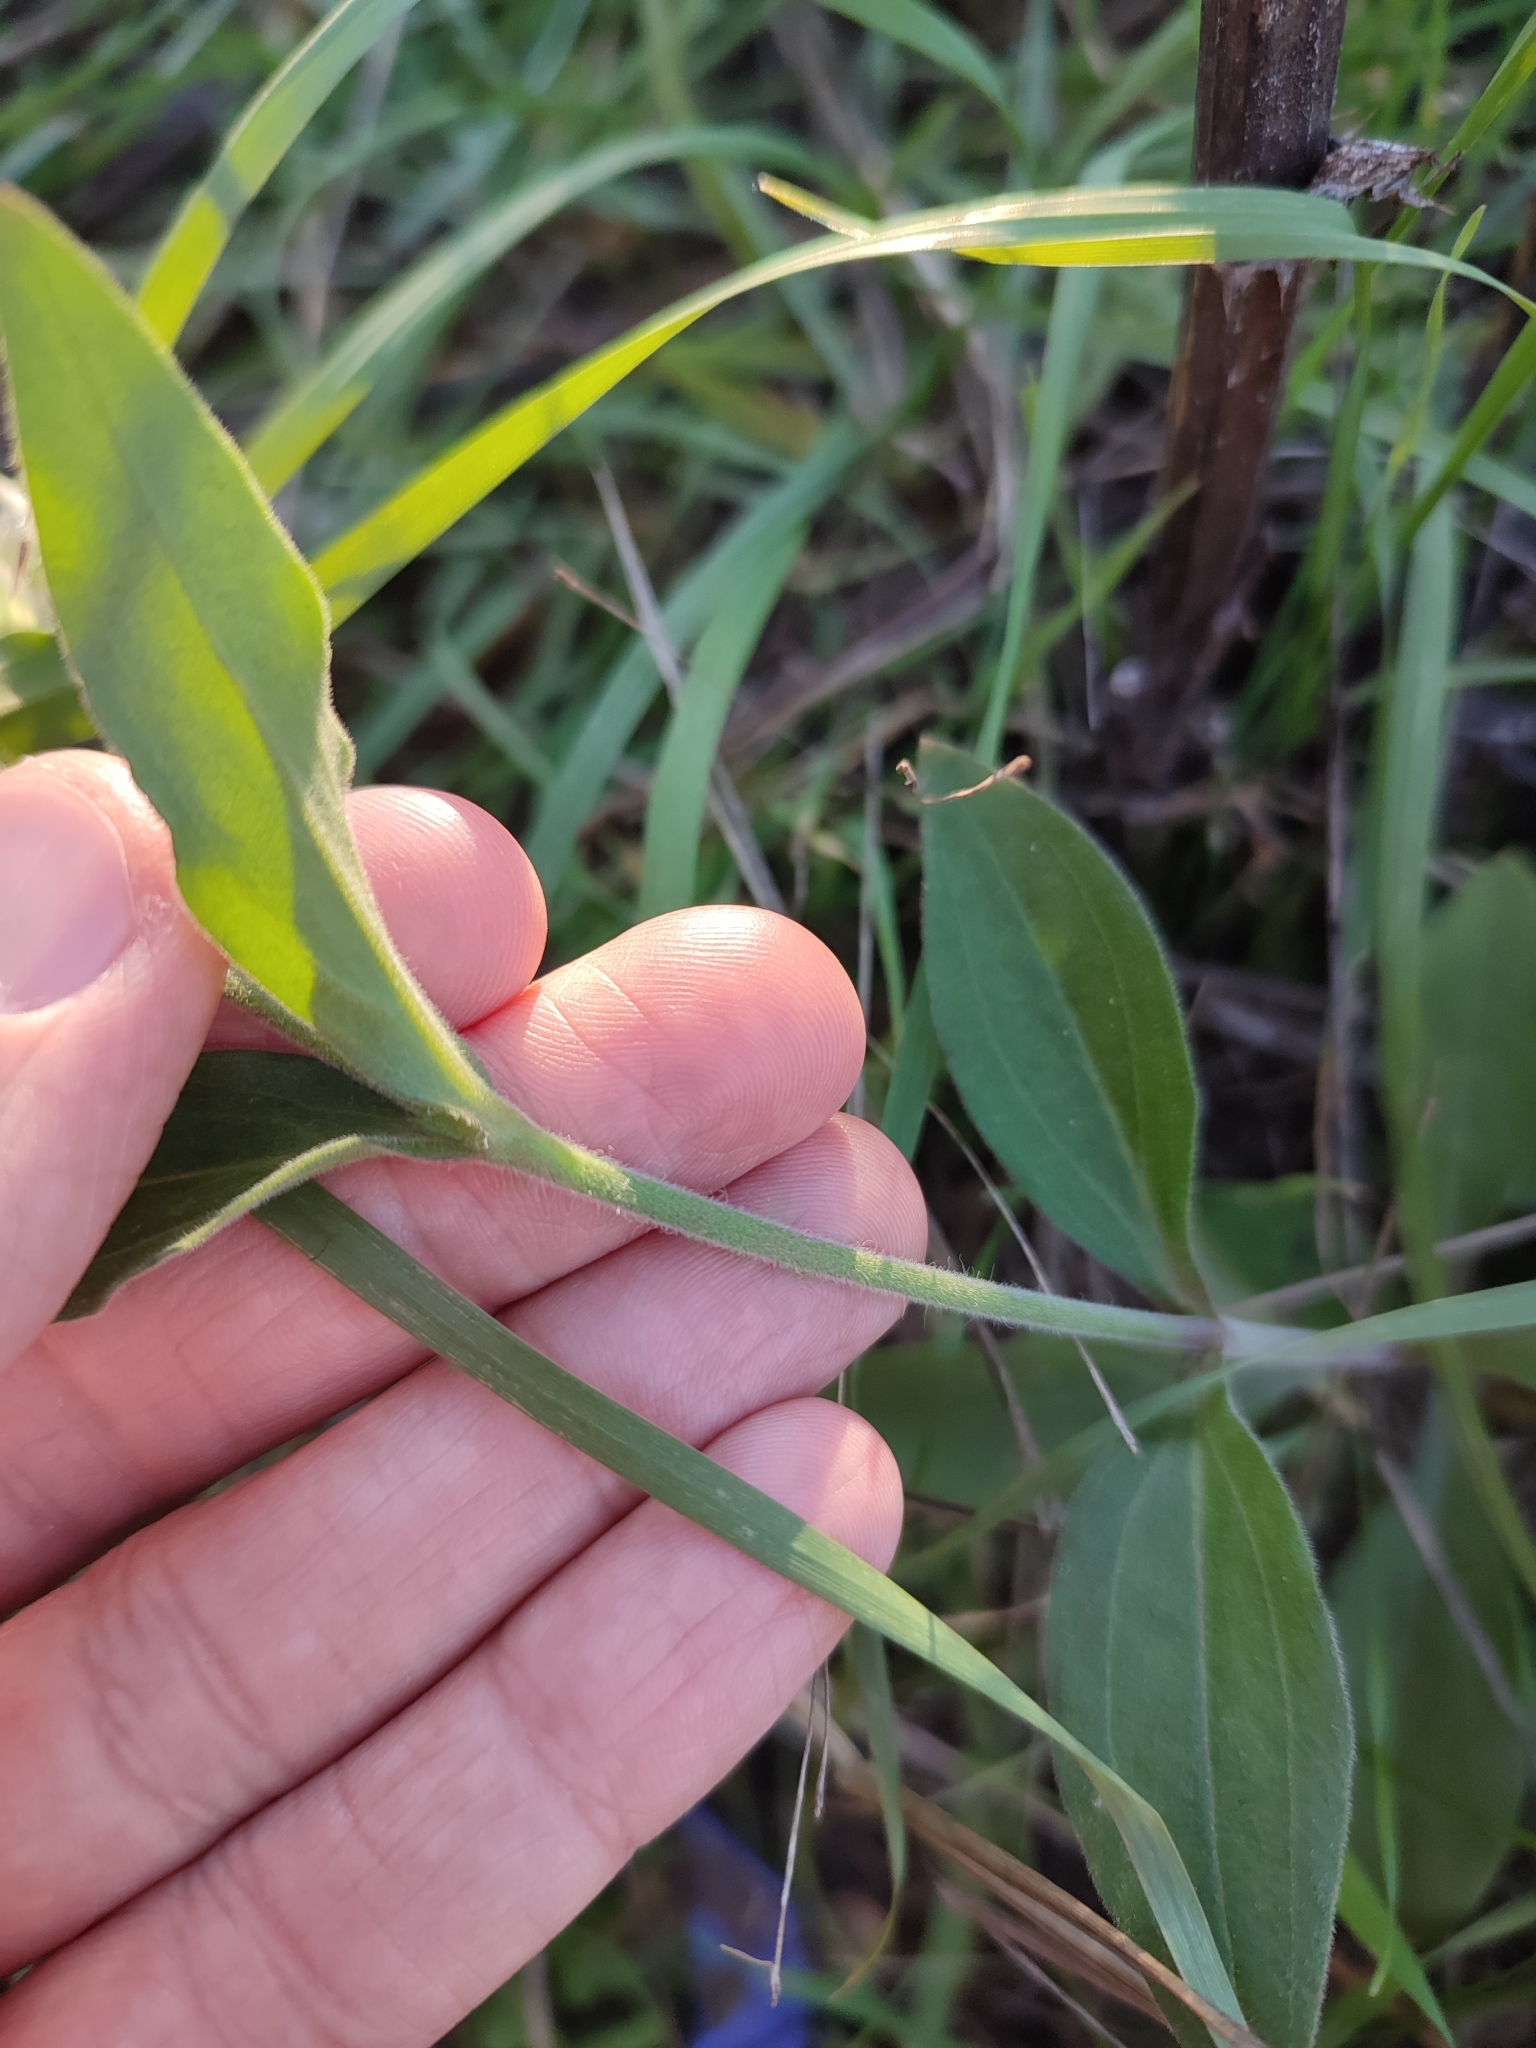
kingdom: Plantae
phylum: Tracheophyta
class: Magnoliopsida
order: Caryophyllales
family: Caryophyllaceae
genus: Silene
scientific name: Silene latifolia
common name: White campion
